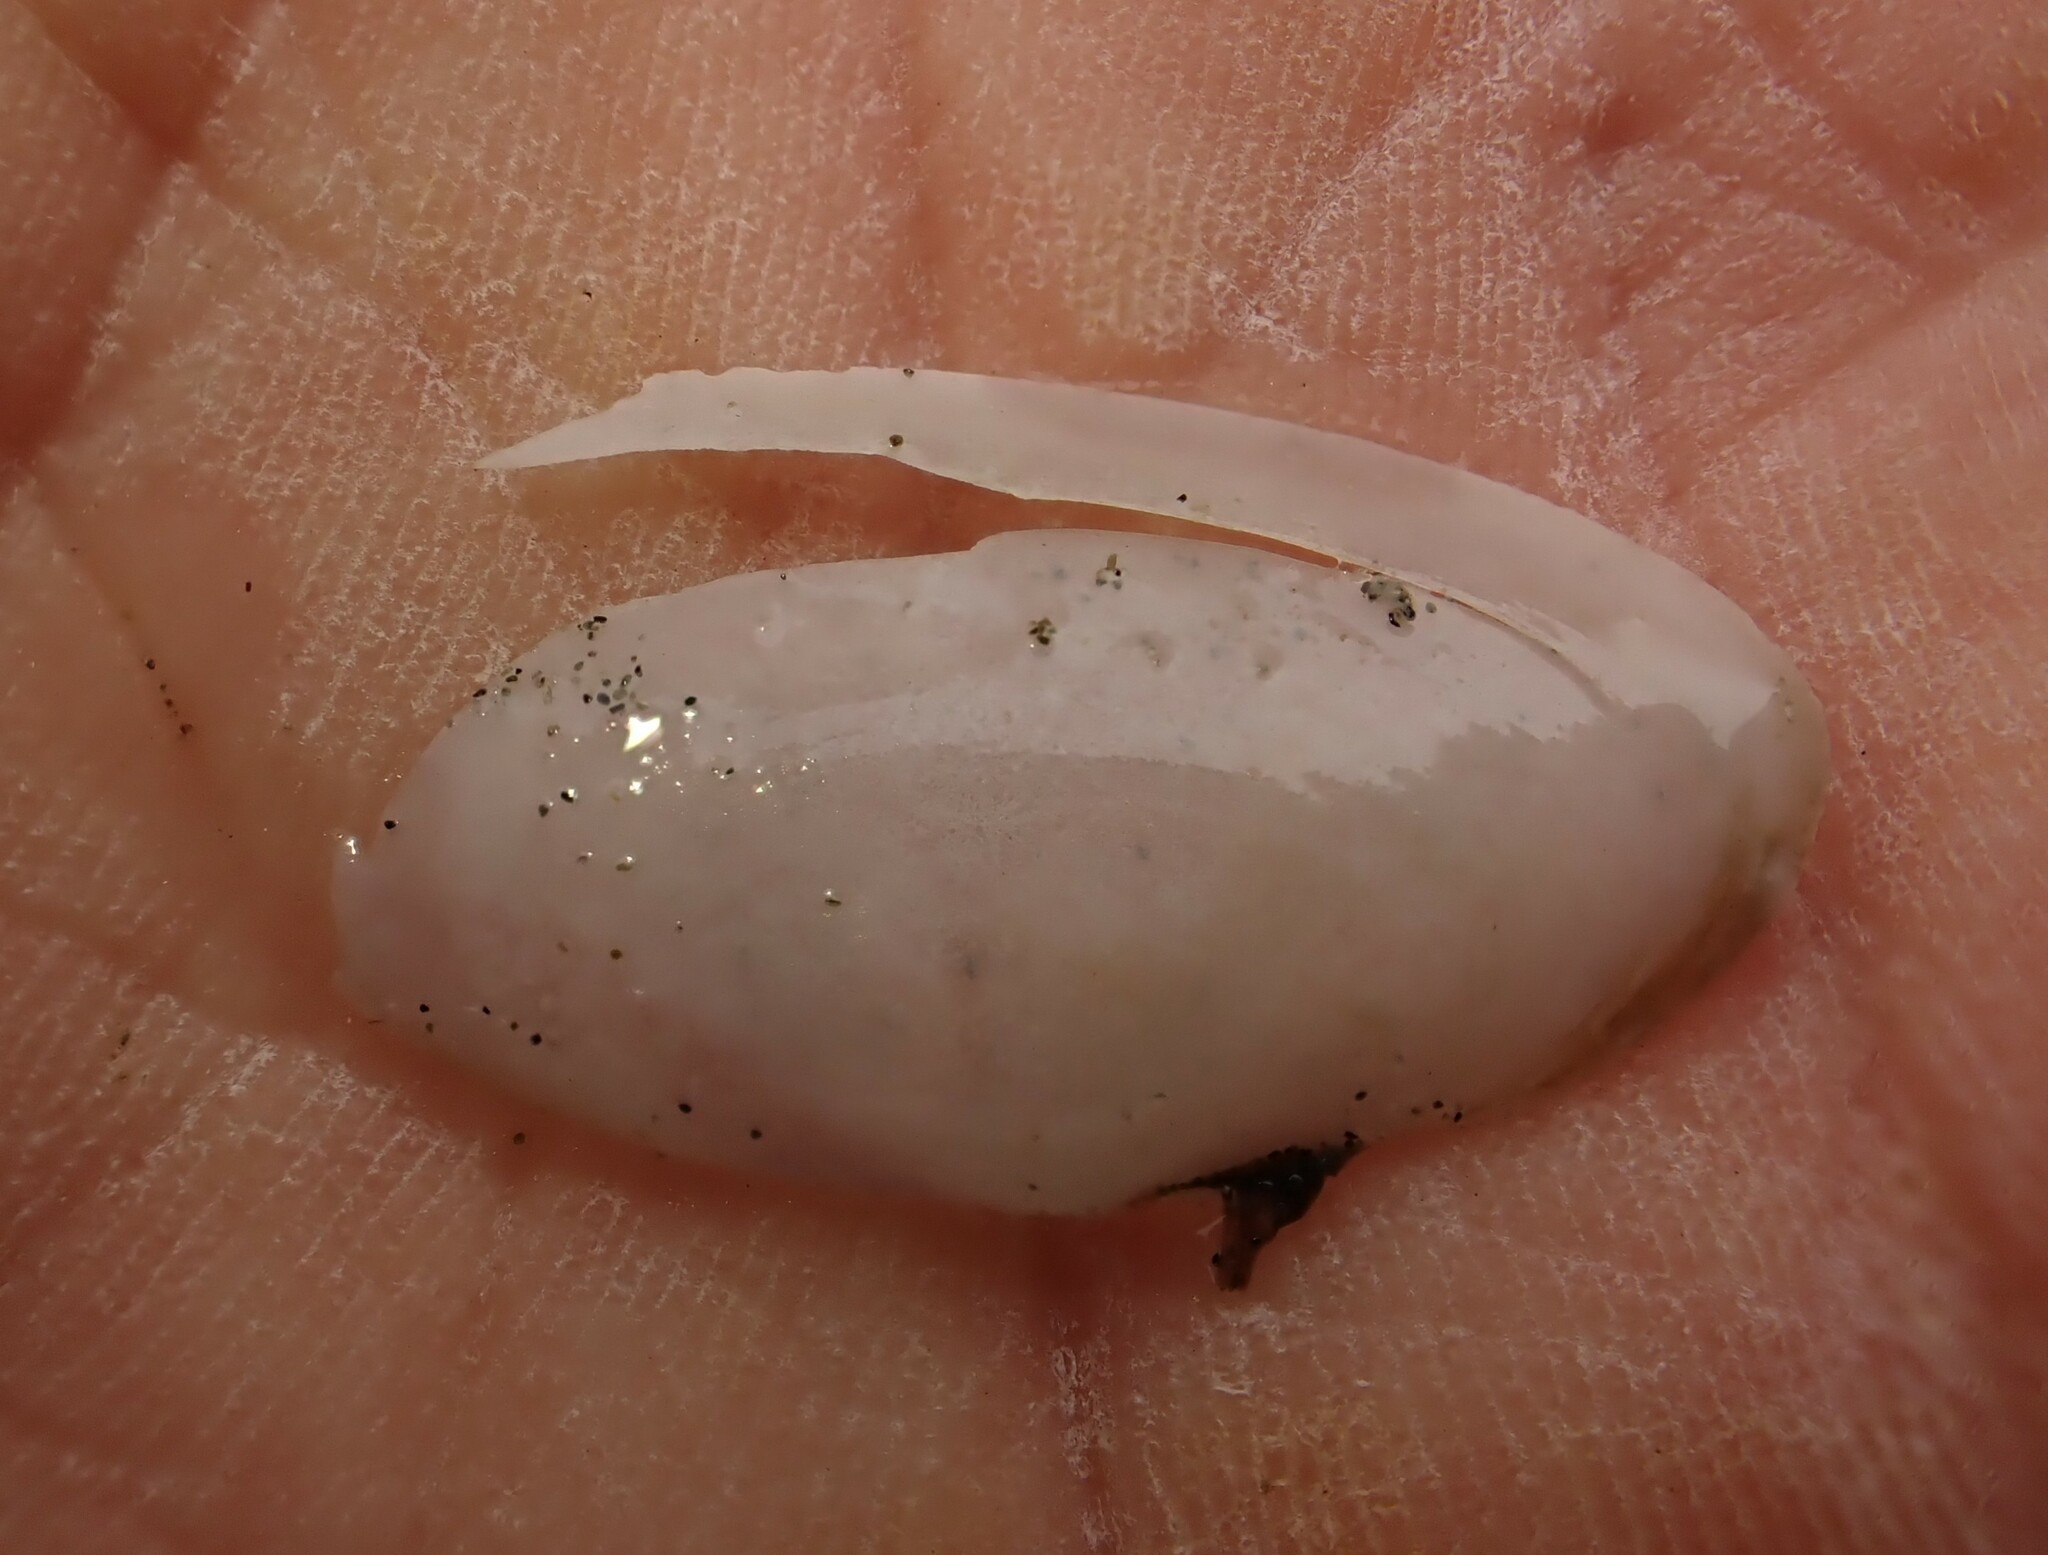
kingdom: Animalia
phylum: Mollusca
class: Bivalvia
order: Cardiida
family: Psammobiidae
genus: Hiatula
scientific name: Hiatula siliquens
